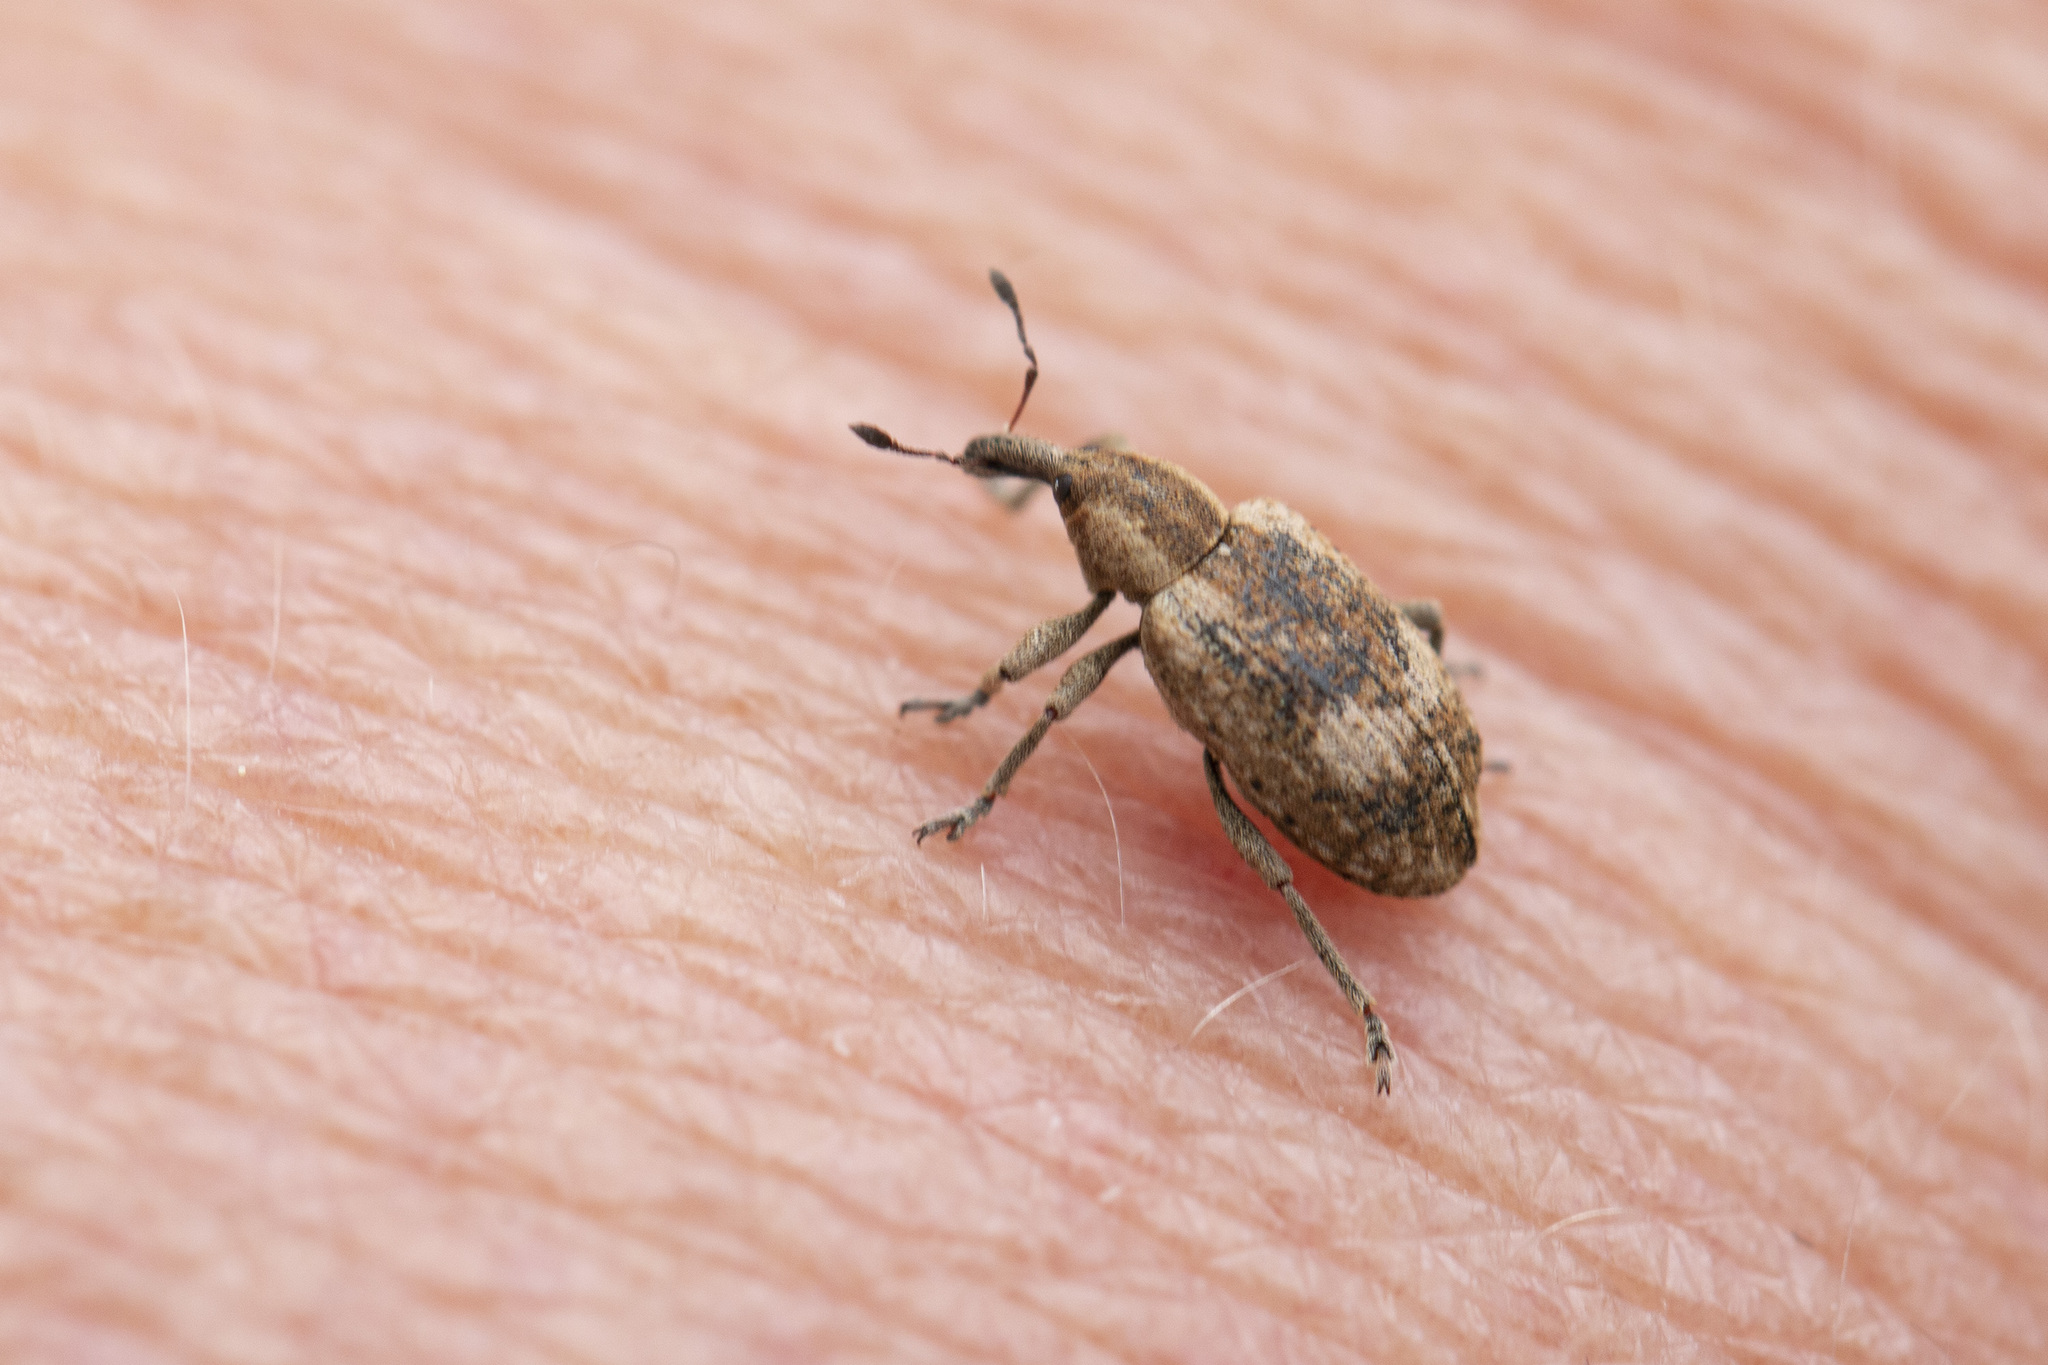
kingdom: Animalia
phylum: Arthropoda
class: Insecta
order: Coleoptera
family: Curculionidae
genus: Hypera
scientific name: Hypera rumicis
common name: Weevil
